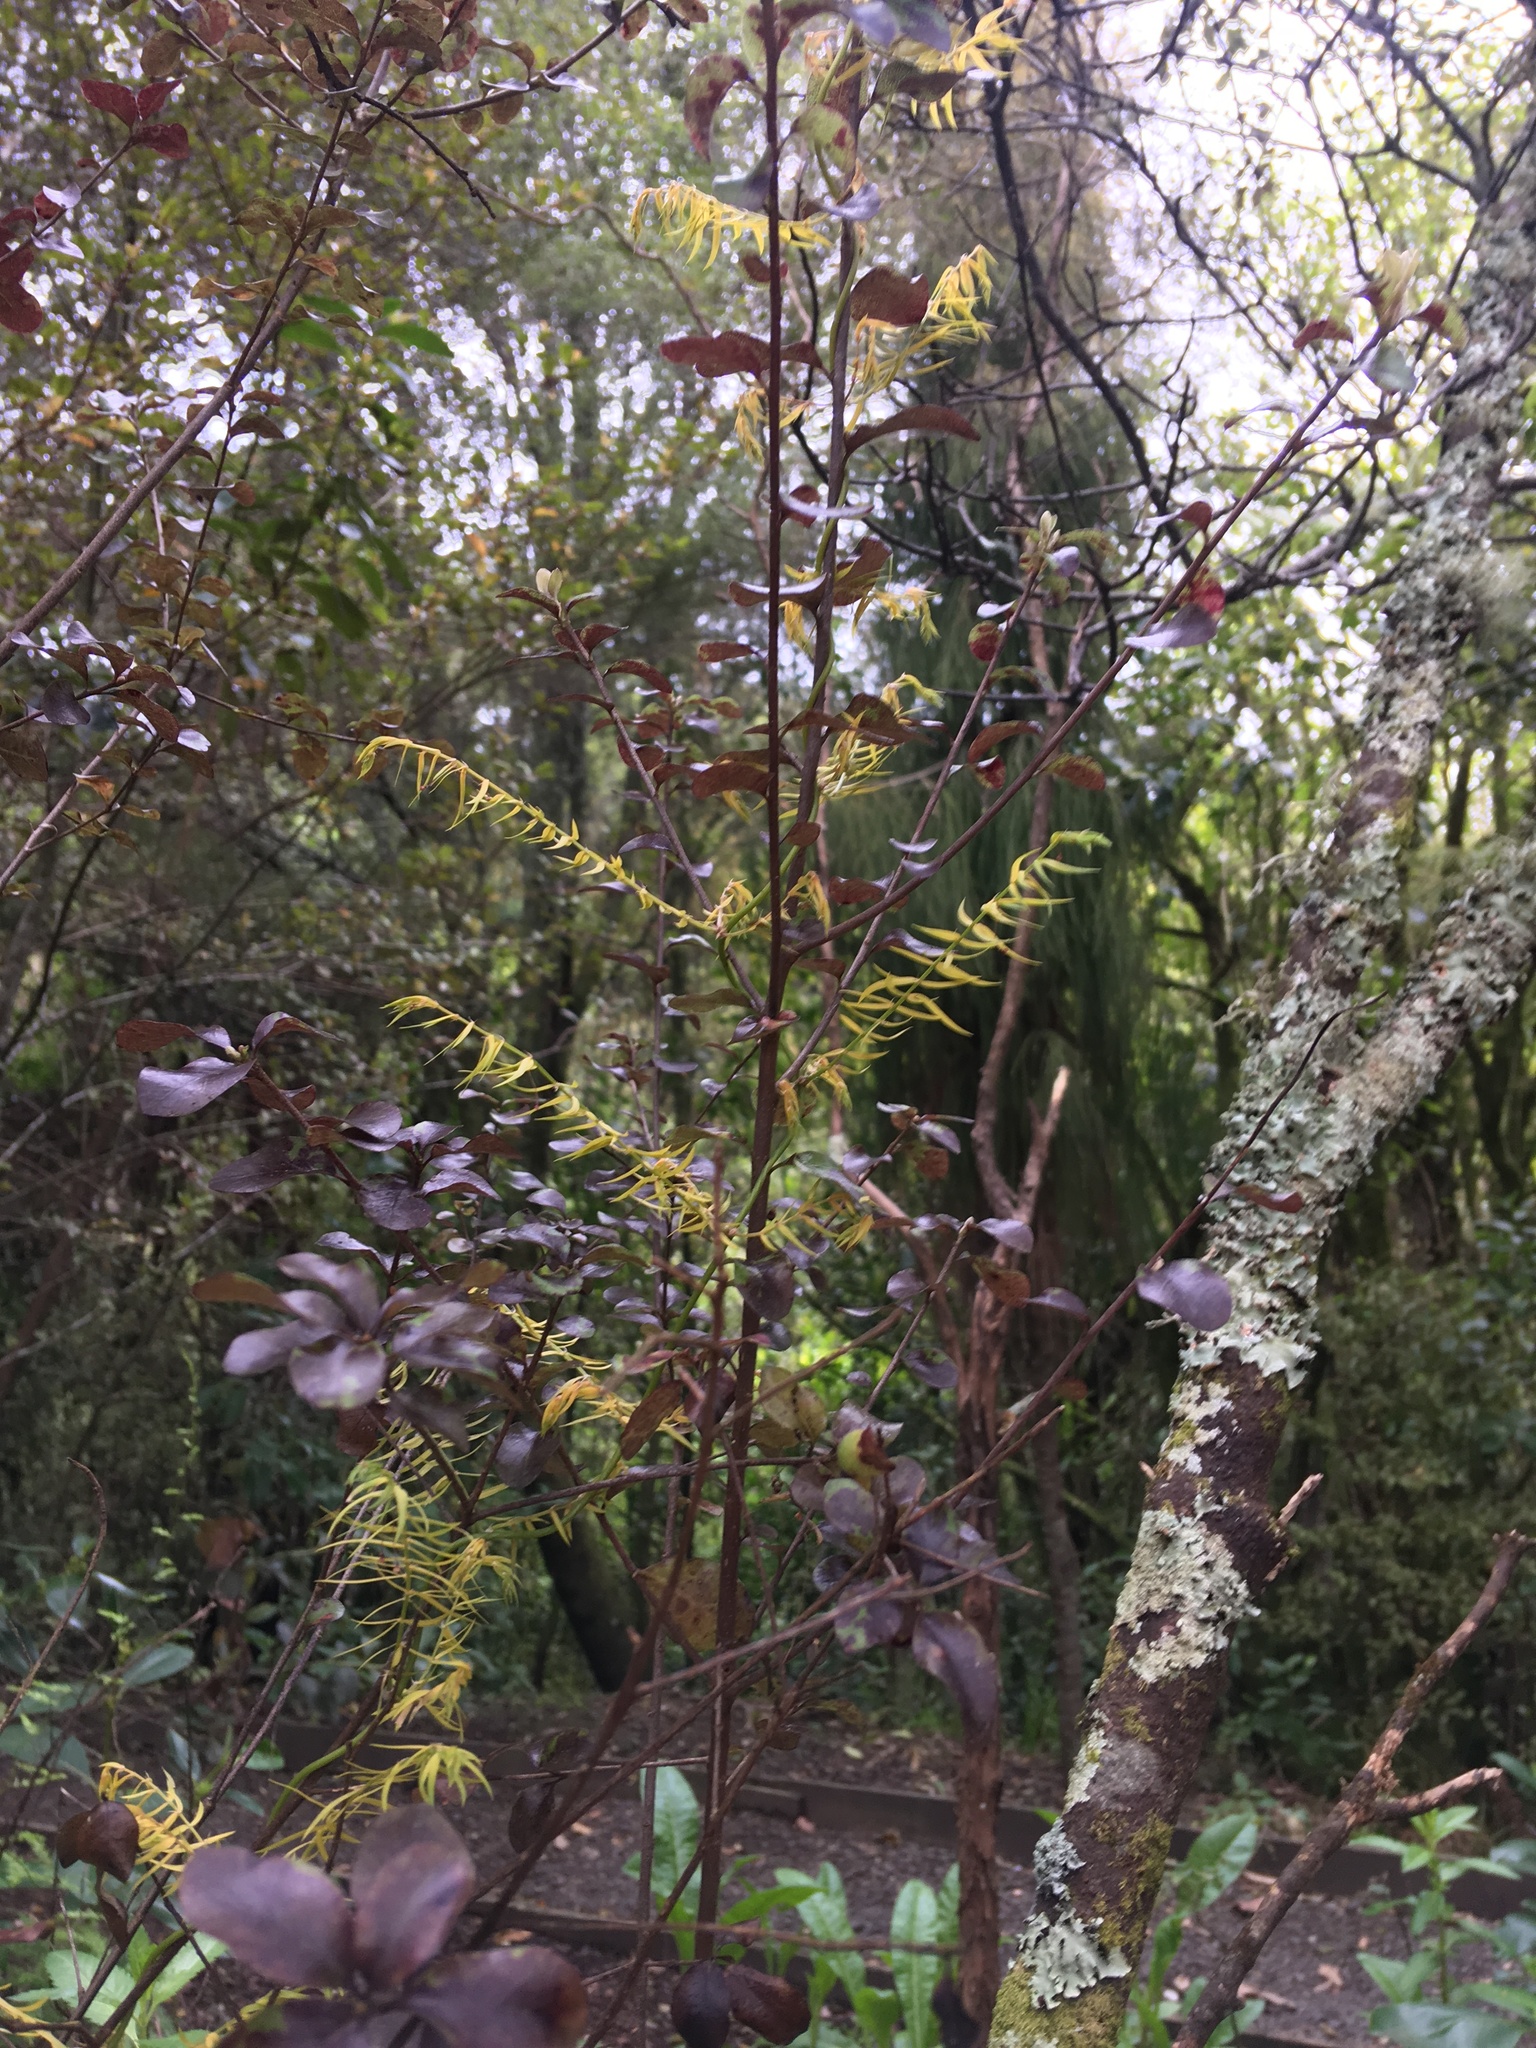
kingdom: Plantae
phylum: Tracheophyta
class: Liliopsida
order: Asparagales
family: Asparagaceae
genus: Asparagus
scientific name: Asparagus scandens
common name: Asparagus-fern
